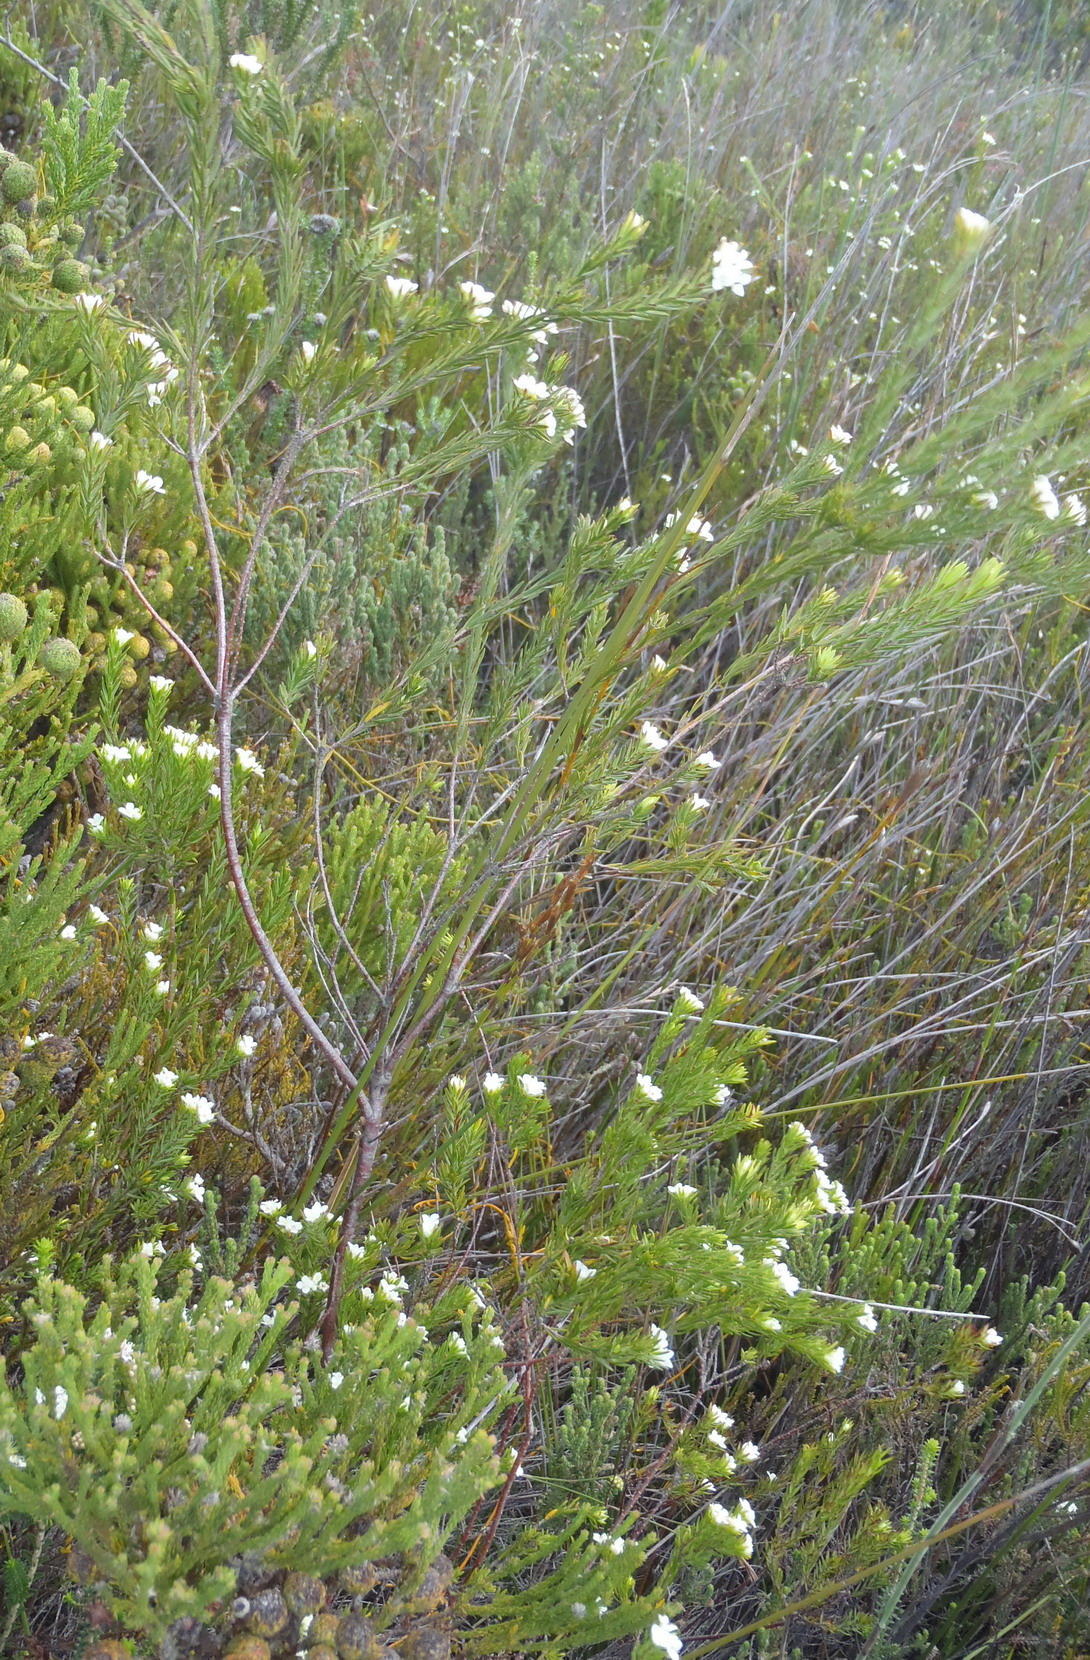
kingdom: Plantae
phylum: Tracheophyta
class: Magnoliopsida
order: Malvales
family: Thymelaeaceae
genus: Lachnaea
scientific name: Lachnaea diosmoides
